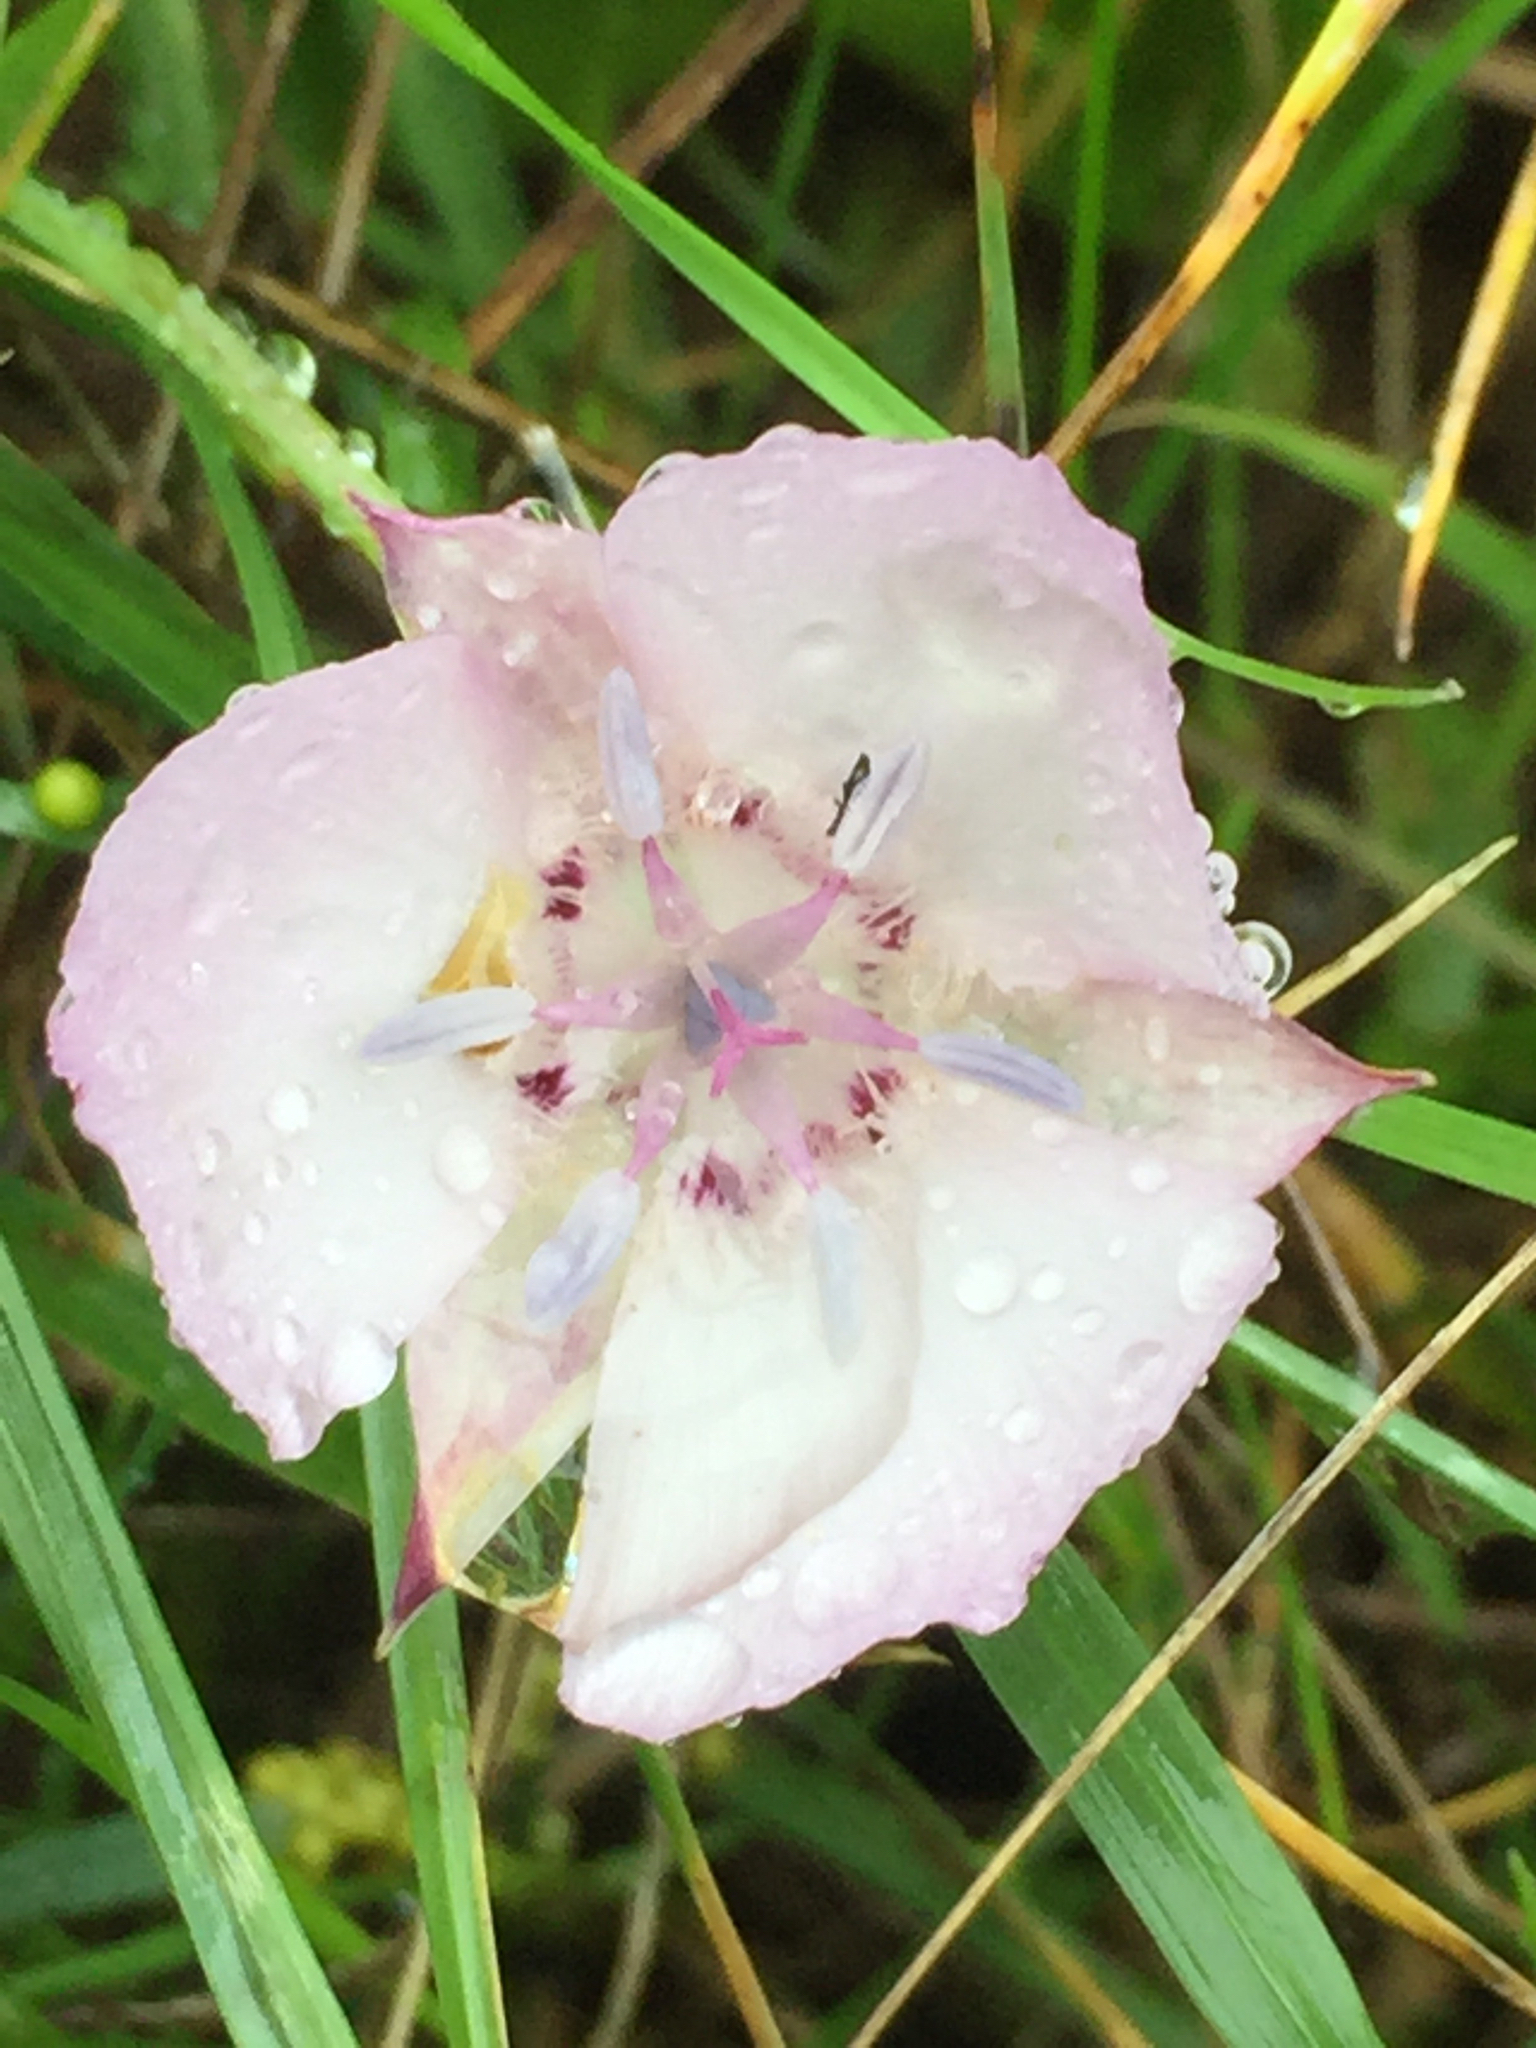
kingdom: Plantae
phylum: Tracheophyta
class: Liliopsida
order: Liliales
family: Liliaceae
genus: Calochortus
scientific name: Calochortus umbellatus
